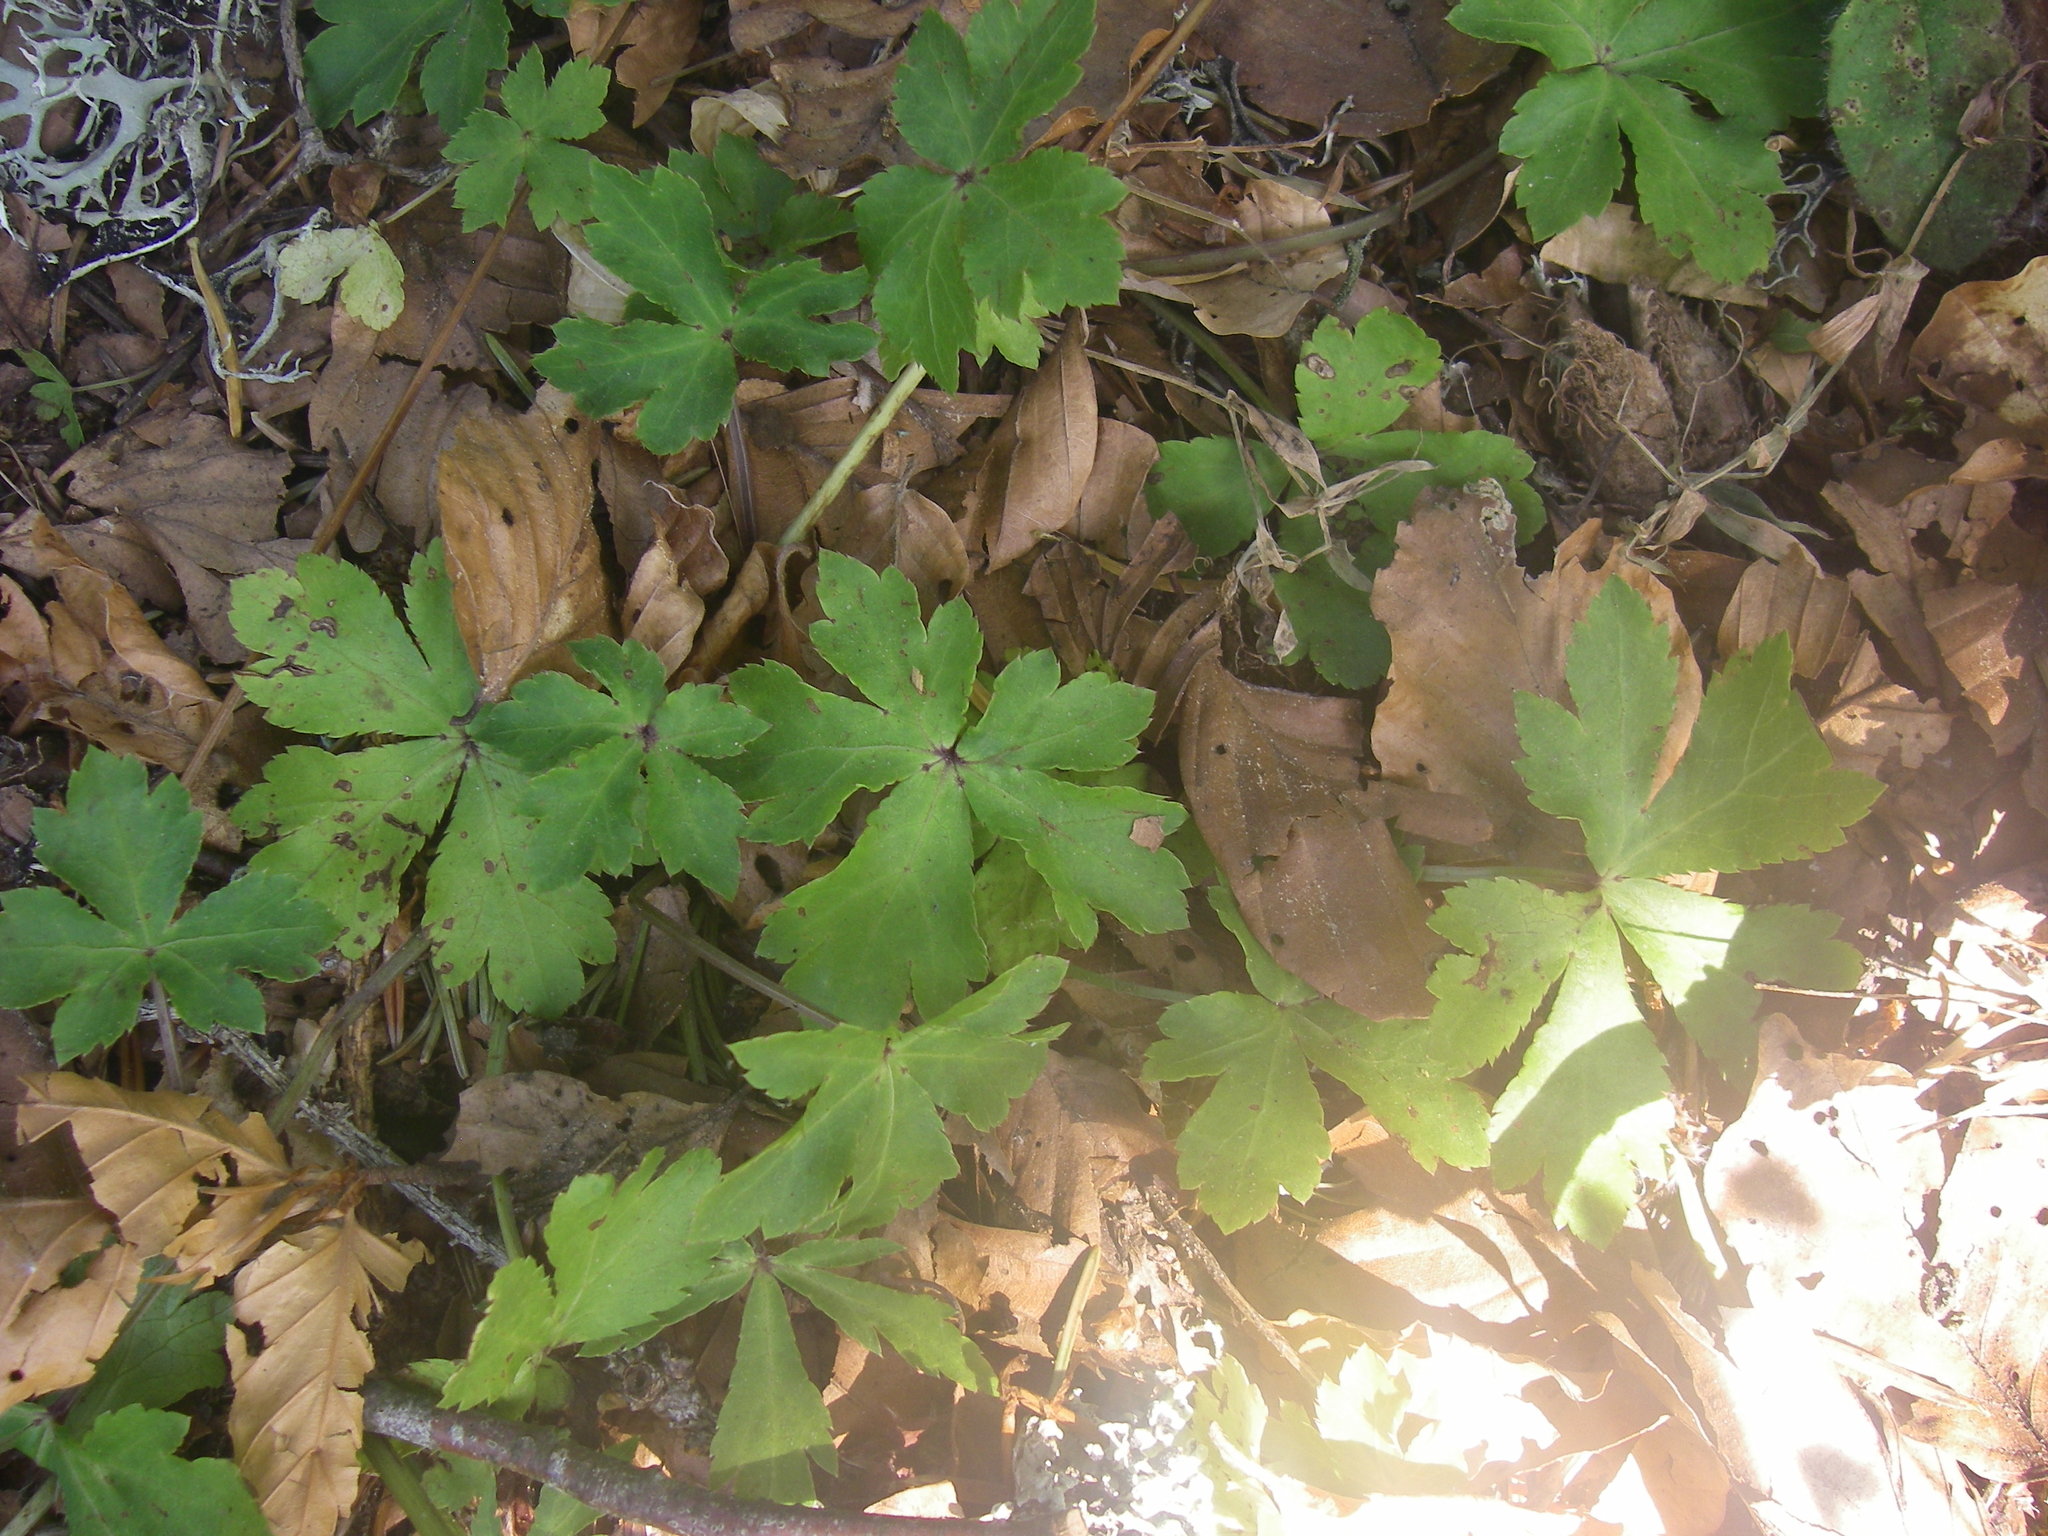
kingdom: Plantae
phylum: Tracheophyta
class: Magnoliopsida
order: Apiales
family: Apiaceae
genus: Sanicula
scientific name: Sanicula europaea
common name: Sanicle
